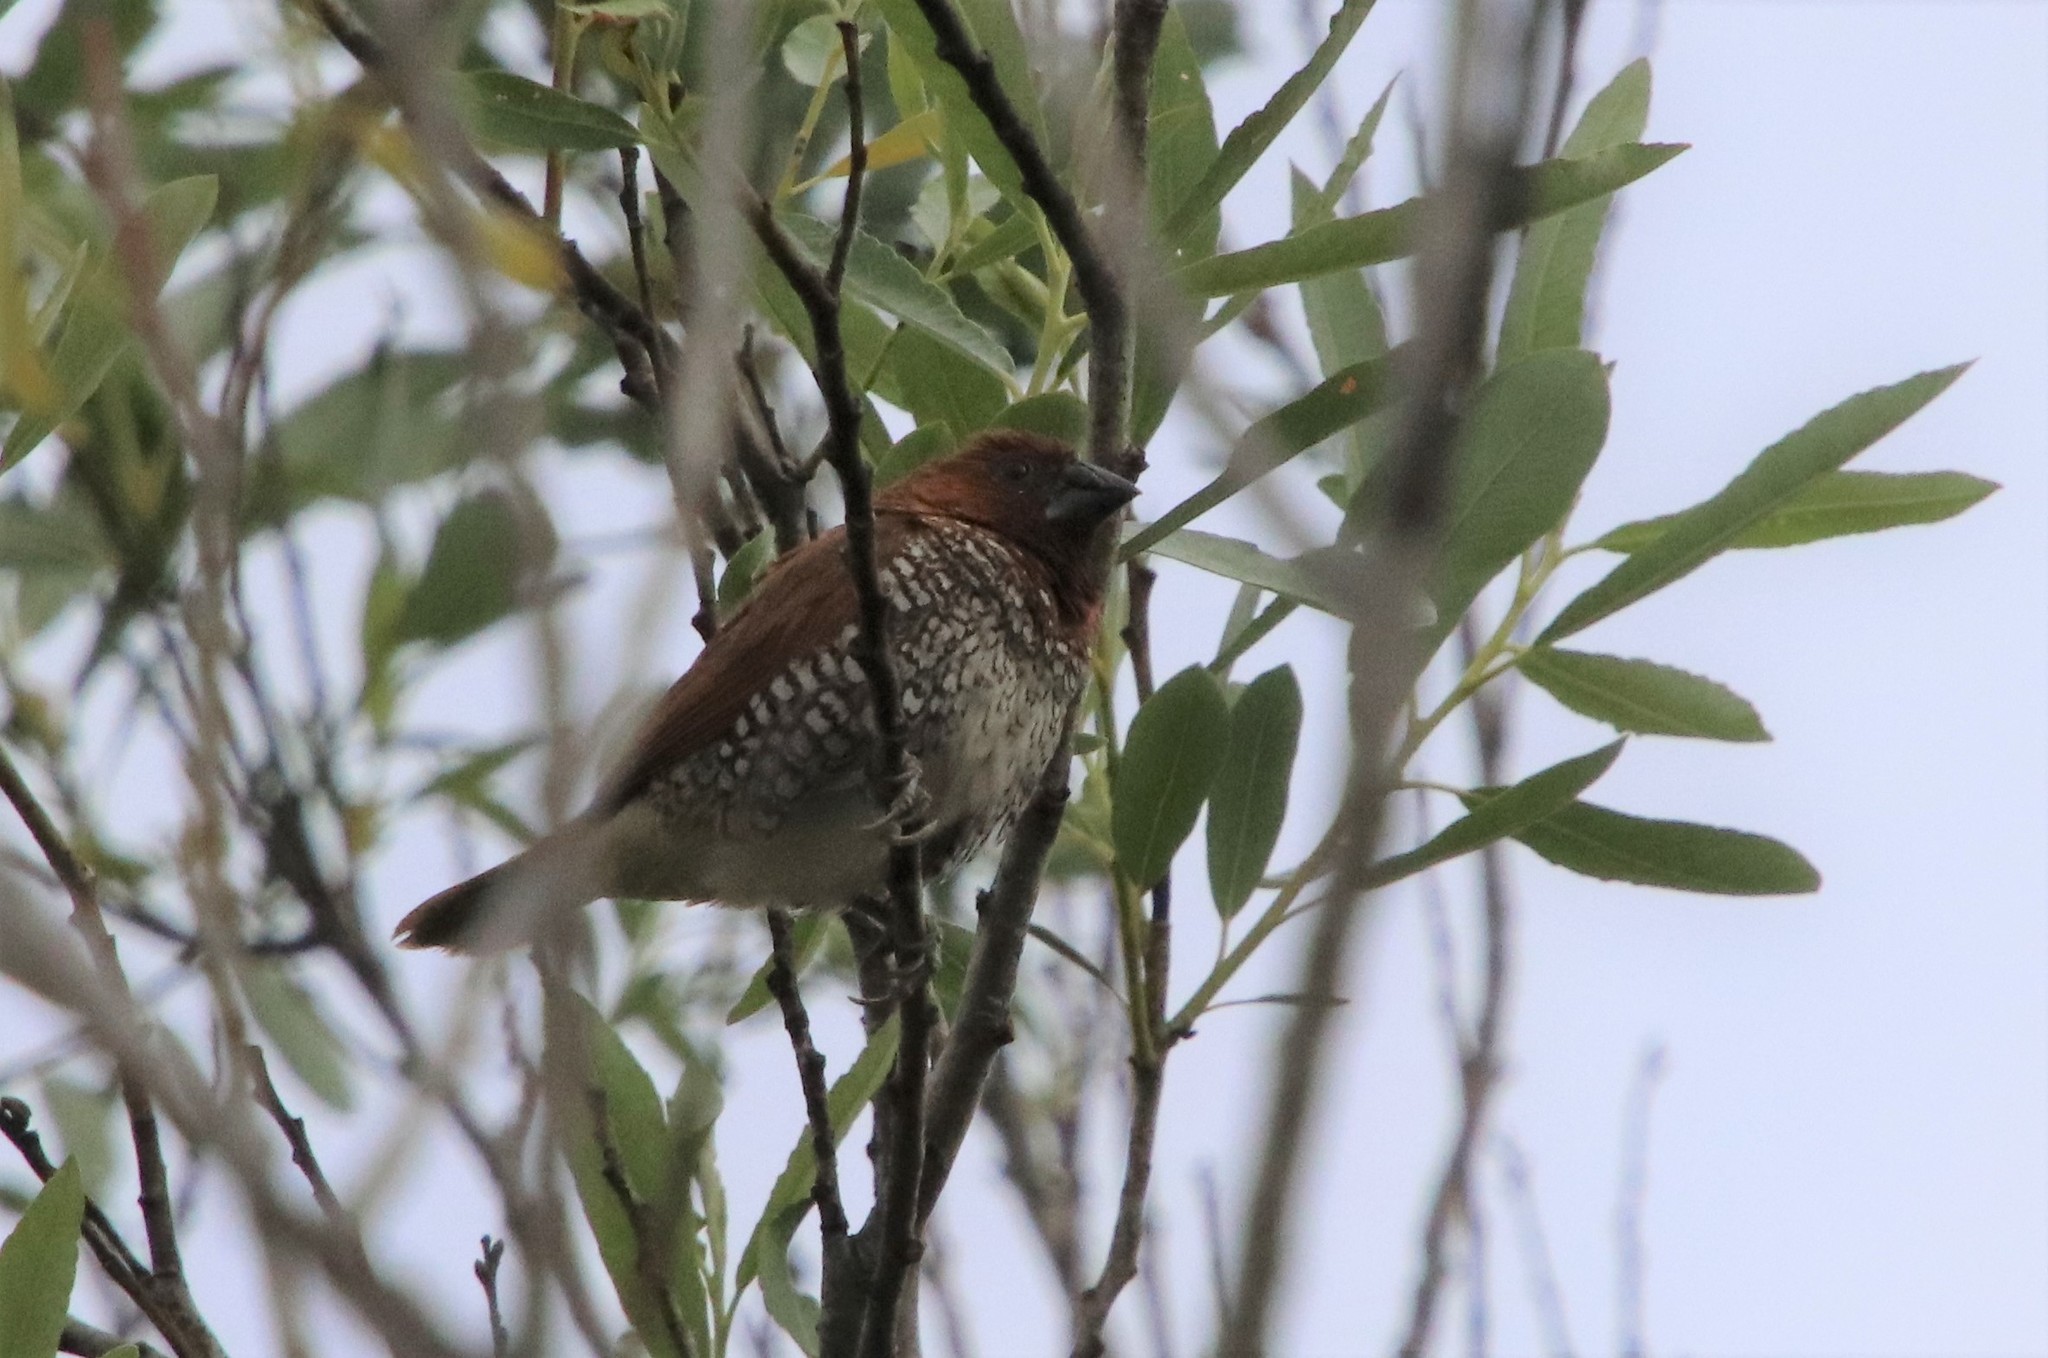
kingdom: Animalia
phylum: Chordata
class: Aves
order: Passeriformes
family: Estrildidae
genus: Lonchura
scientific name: Lonchura punctulata
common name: Scaly-breasted munia
